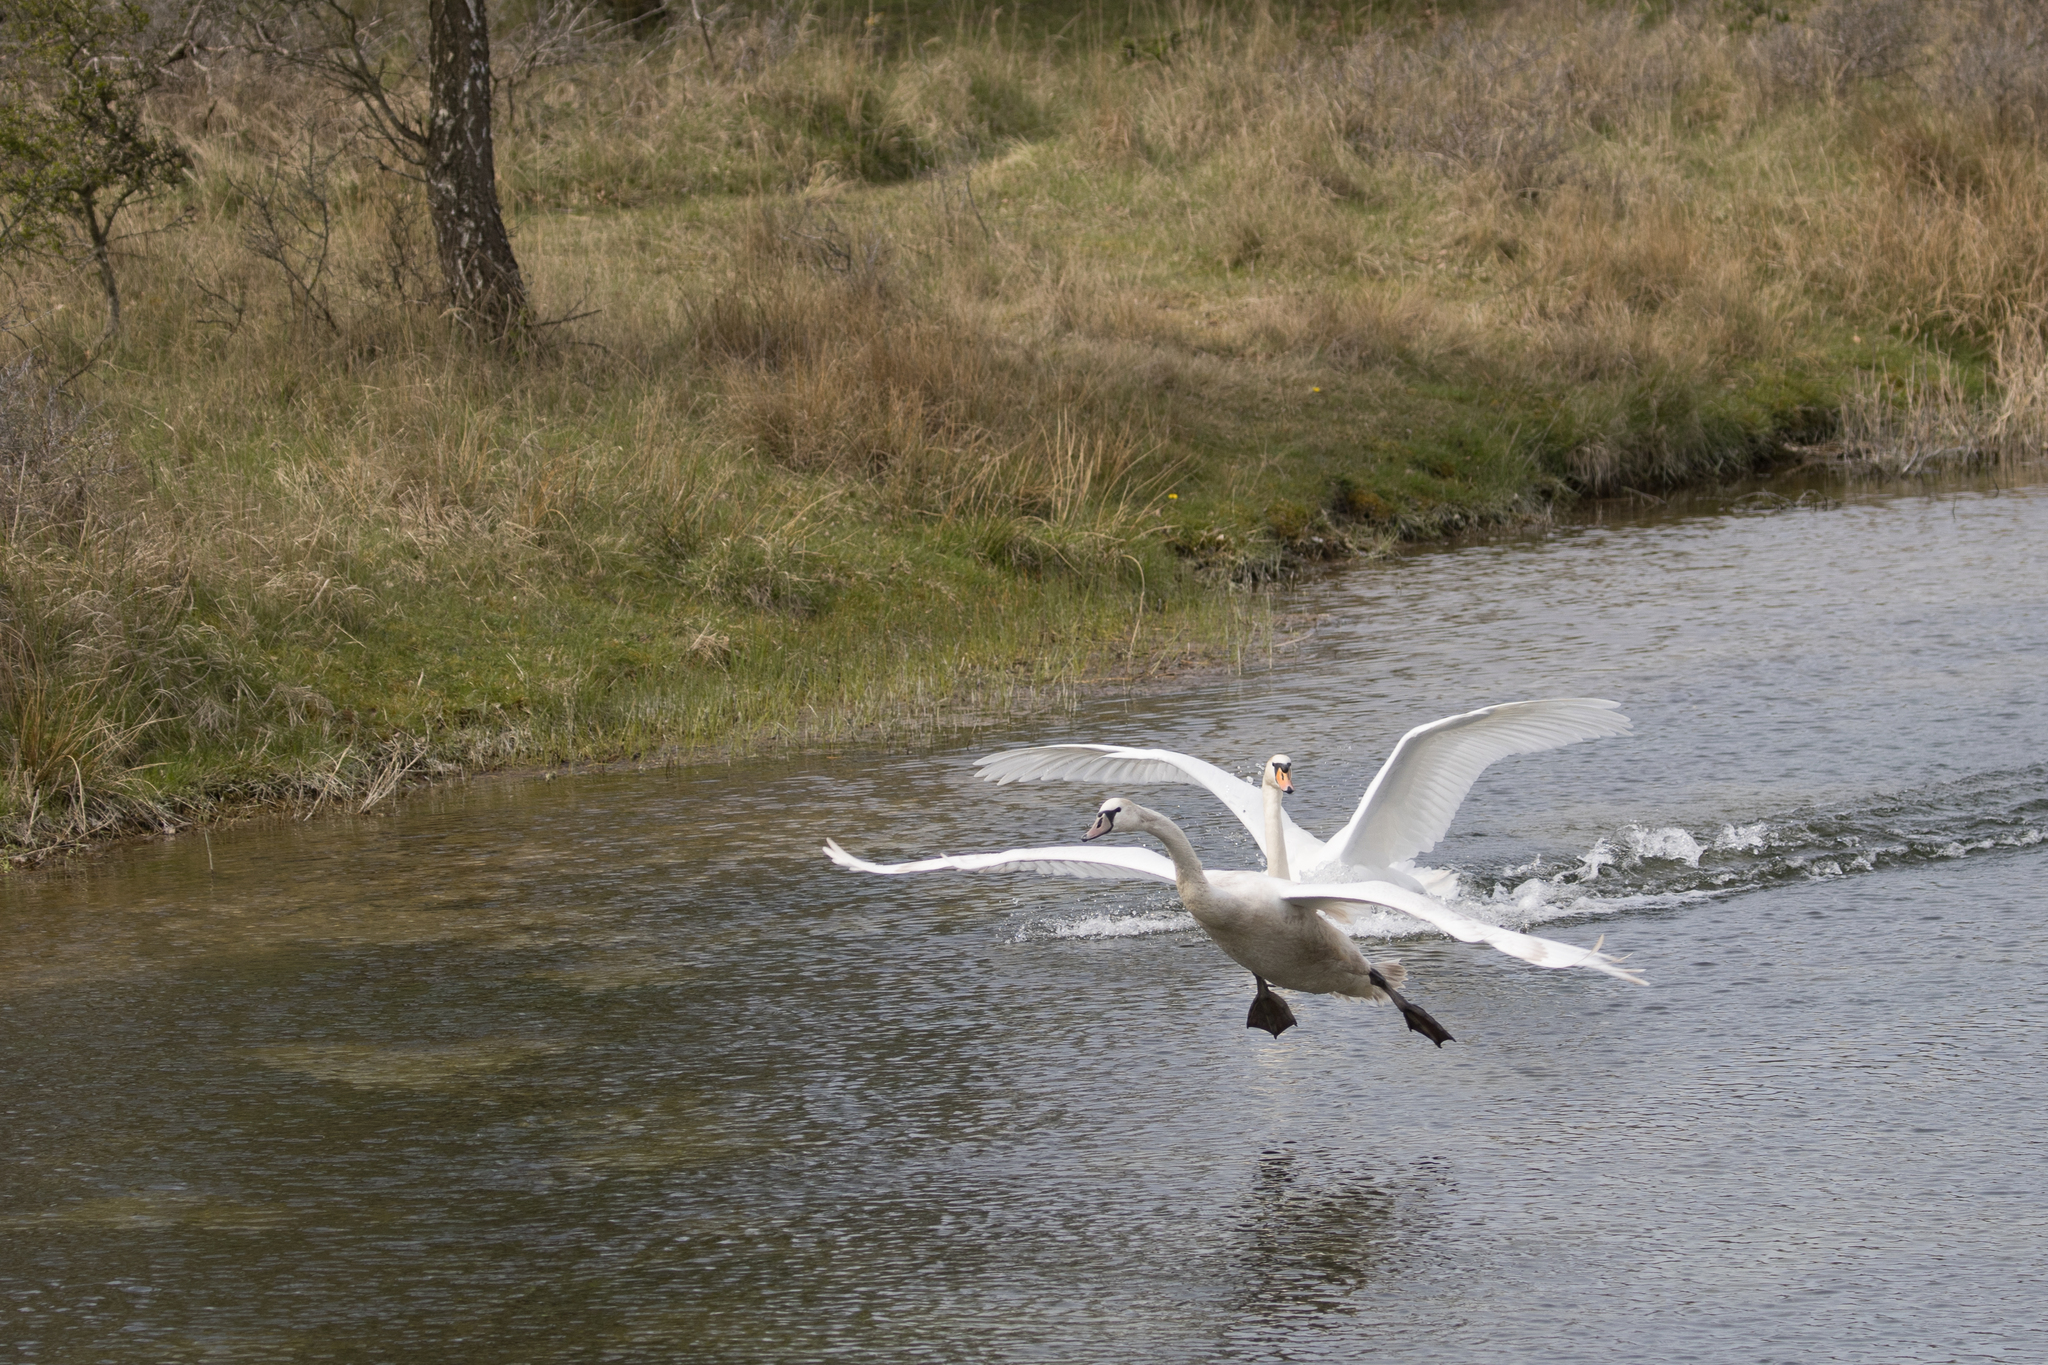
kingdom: Animalia
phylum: Chordata
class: Aves
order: Anseriformes
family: Anatidae
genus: Cygnus
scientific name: Cygnus olor
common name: Mute swan
